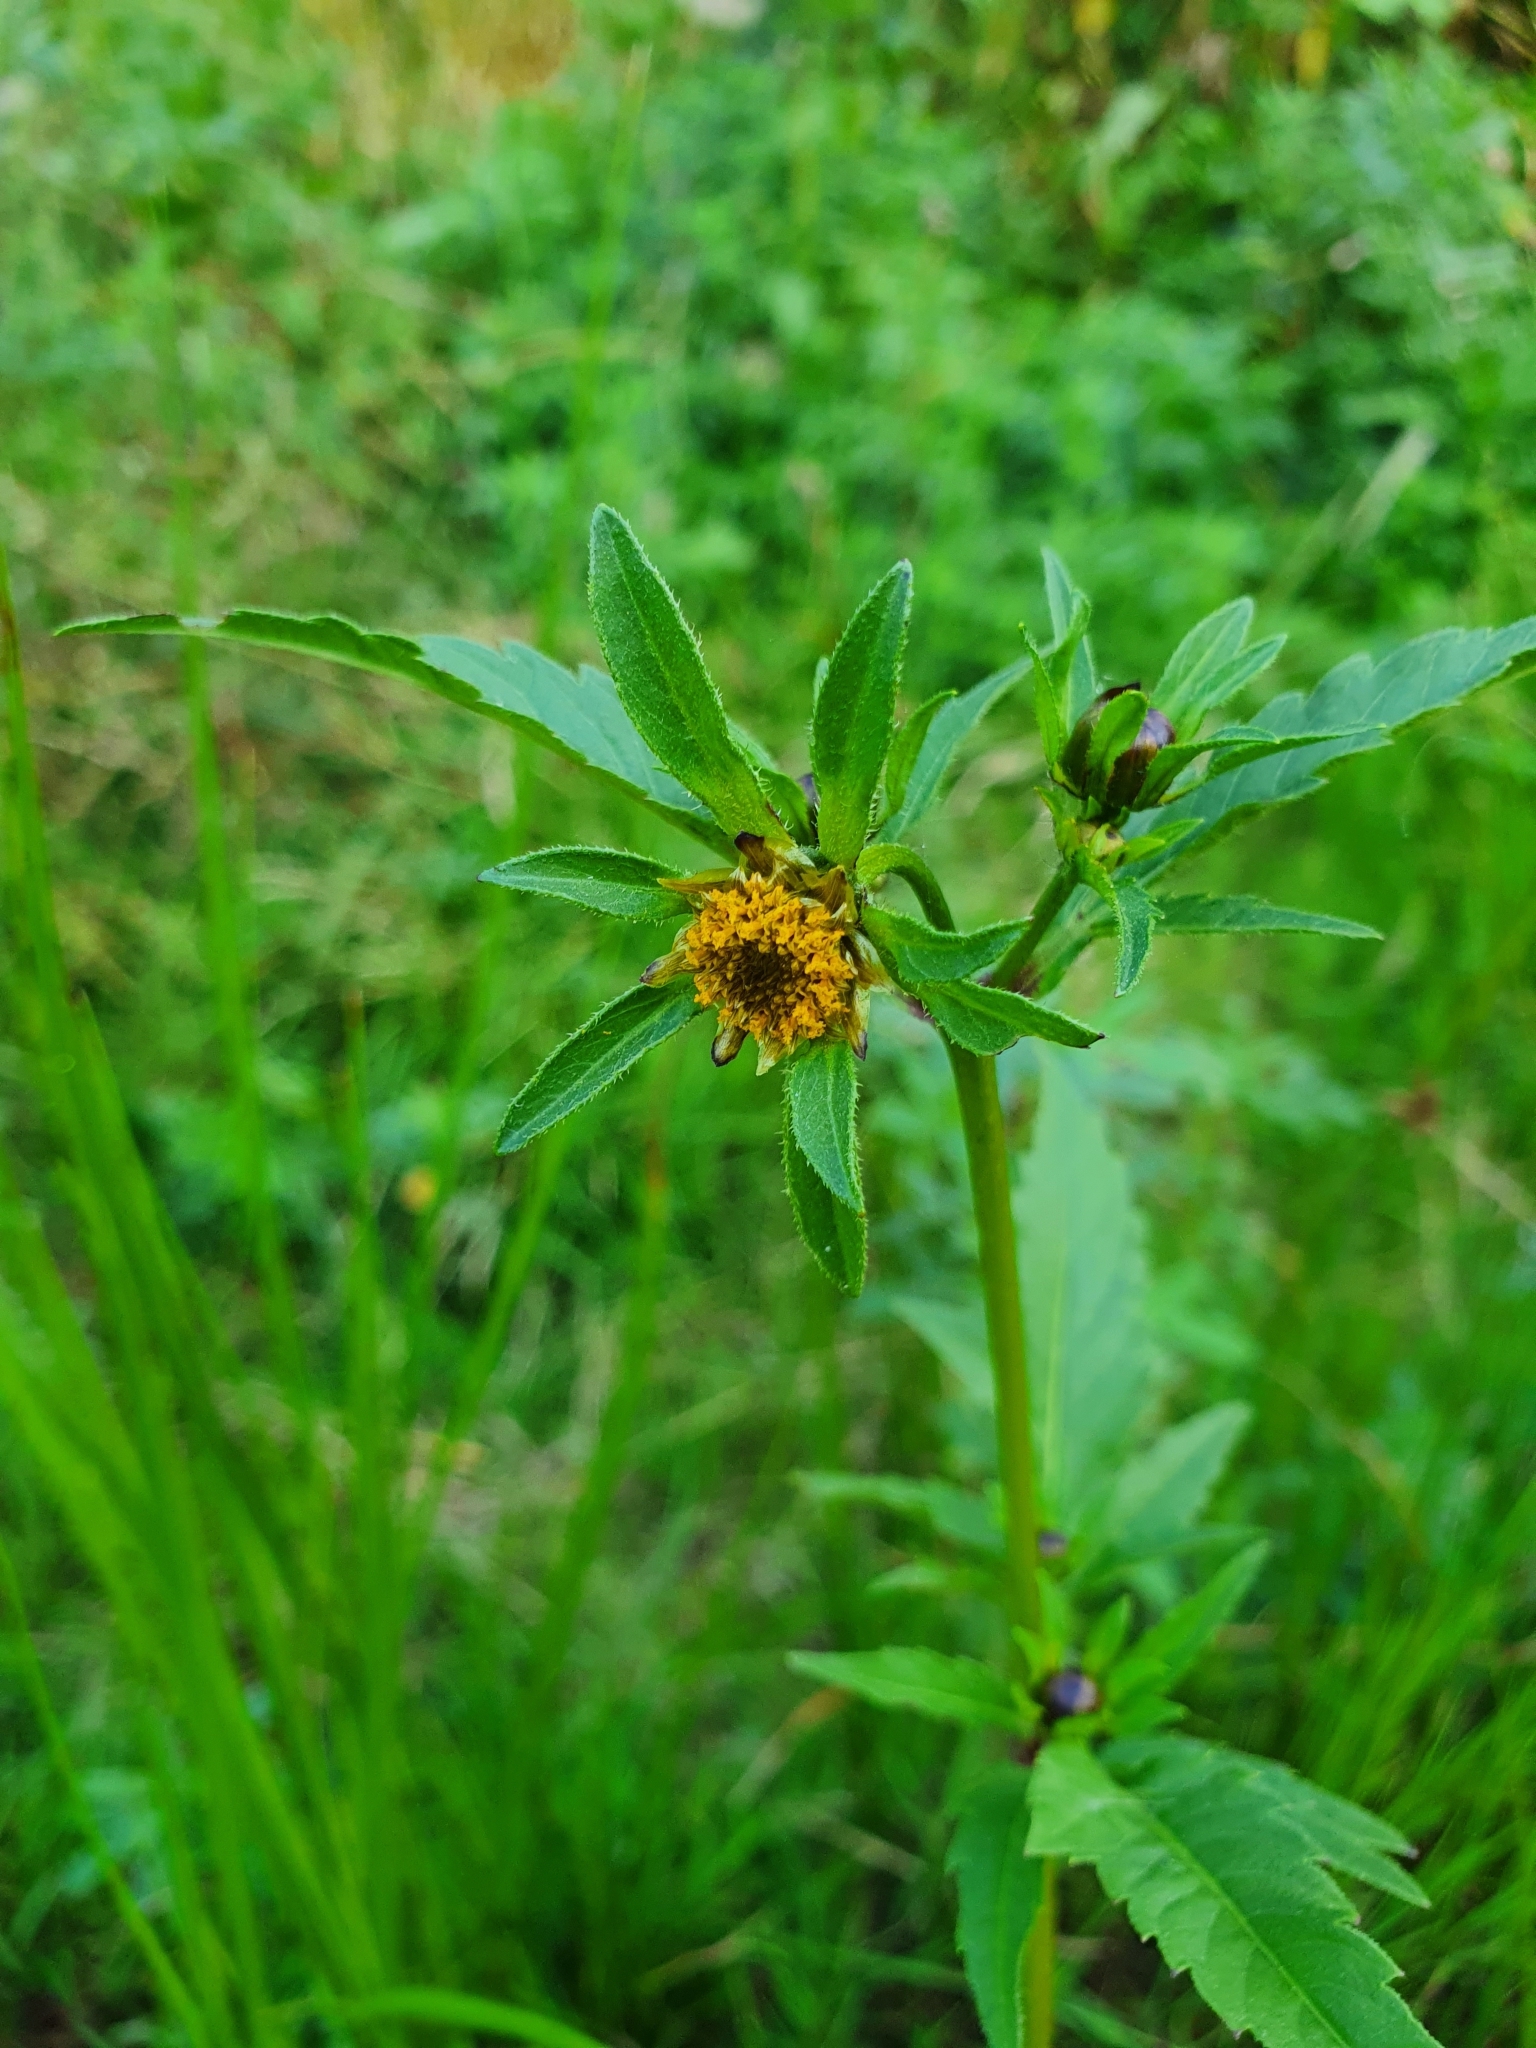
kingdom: Plantae
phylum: Tracheophyta
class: Magnoliopsida
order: Asterales
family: Asteraceae
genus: Bidens
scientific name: Bidens tripartita
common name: Trifid bur-marigold
